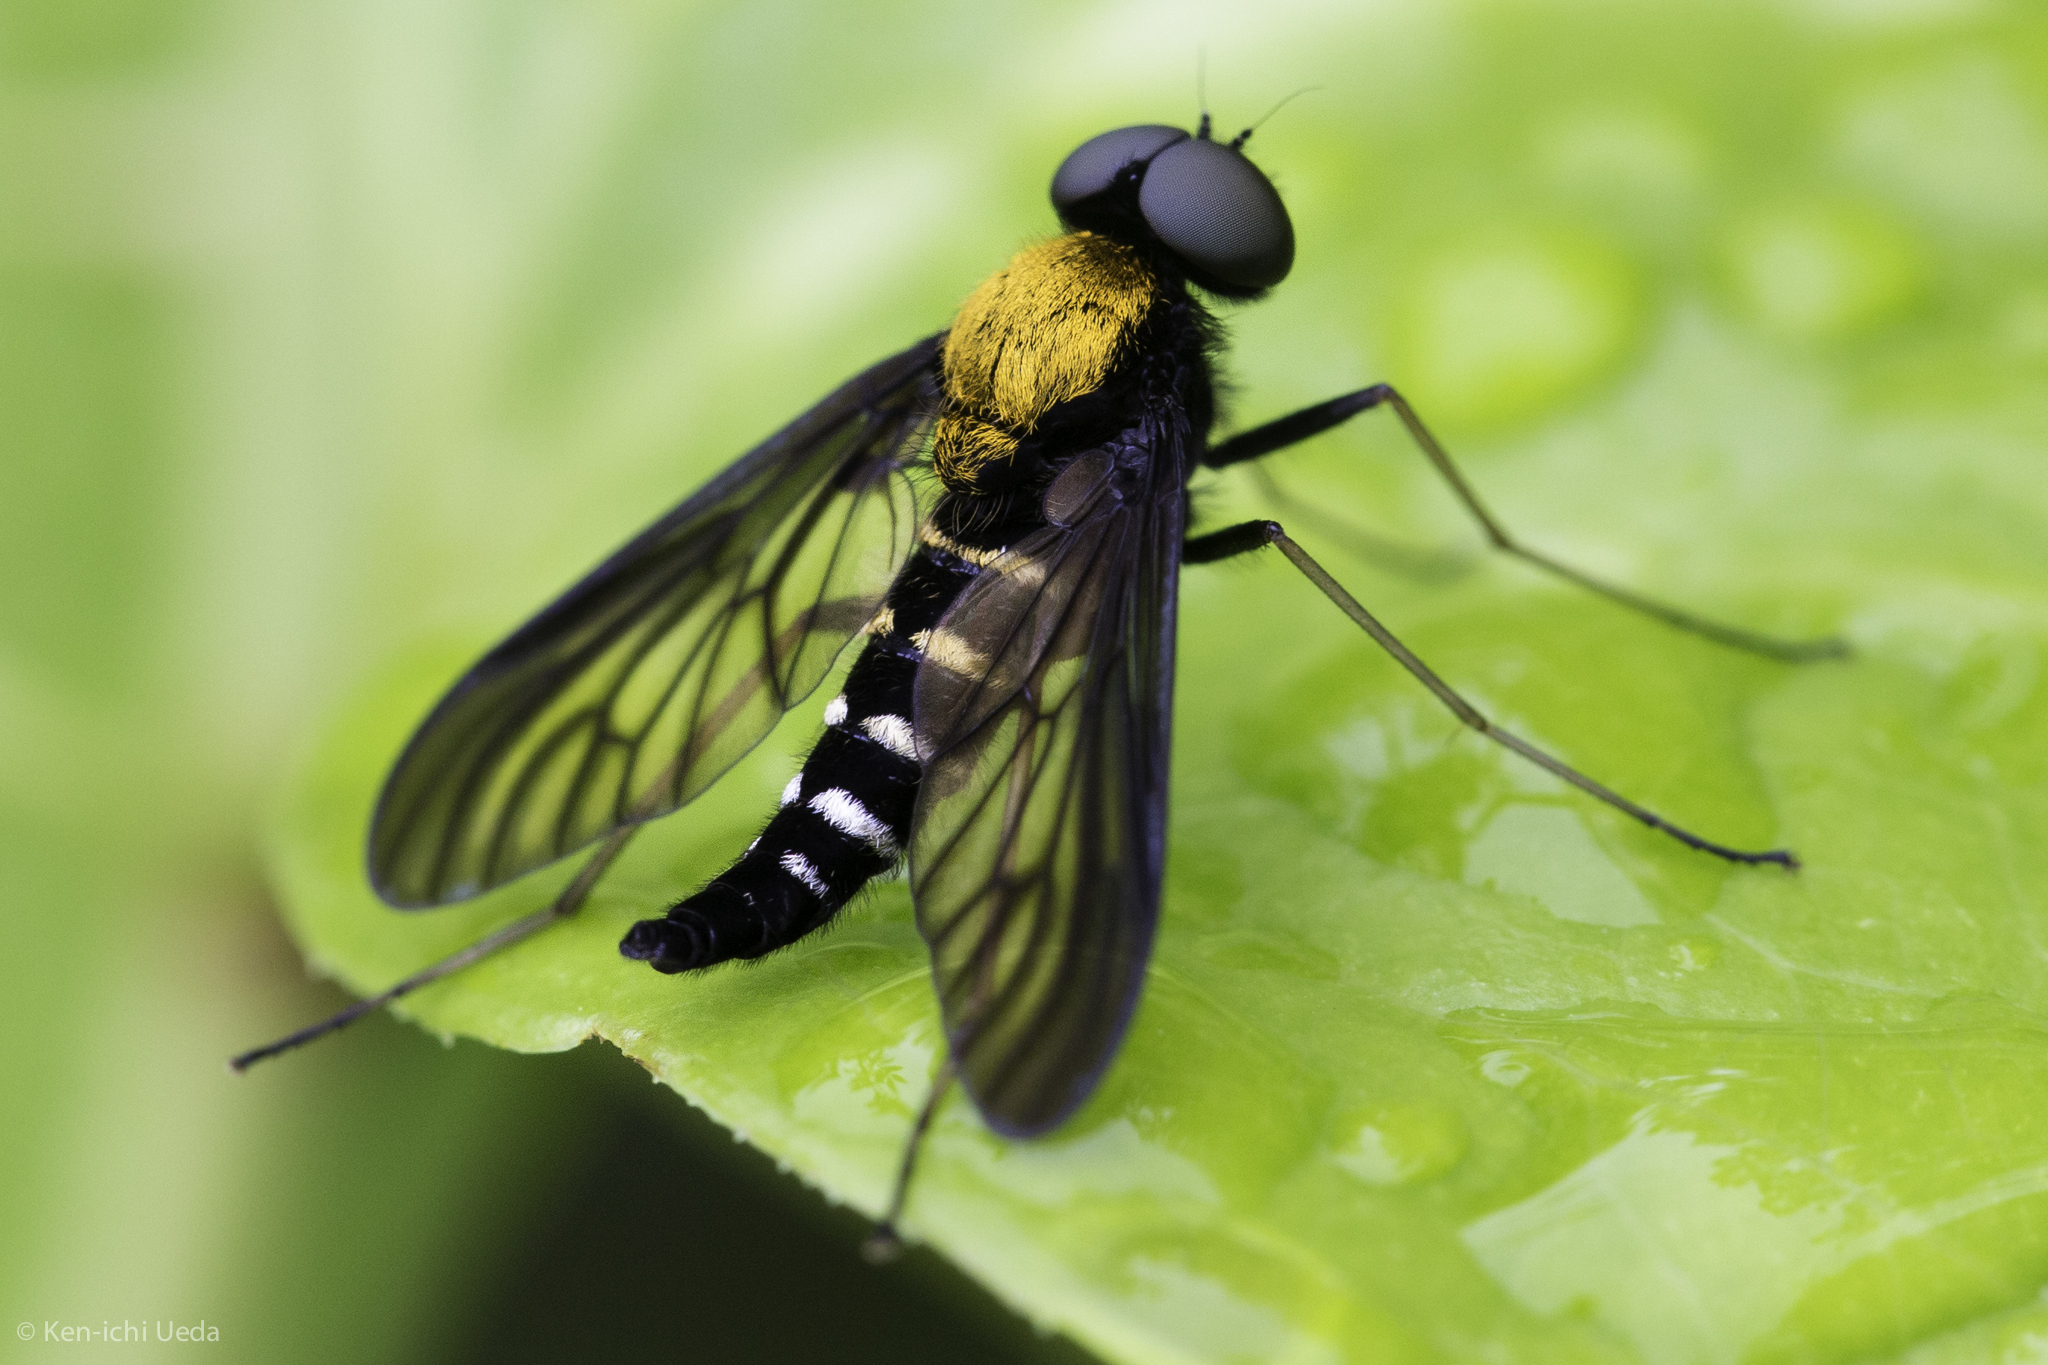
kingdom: Animalia
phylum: Arthropoda
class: Insecta
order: Diptera
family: Rhagionidae
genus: Chrysopilus
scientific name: Chrysopilus thoracicus
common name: Golden-backed snipe fly
